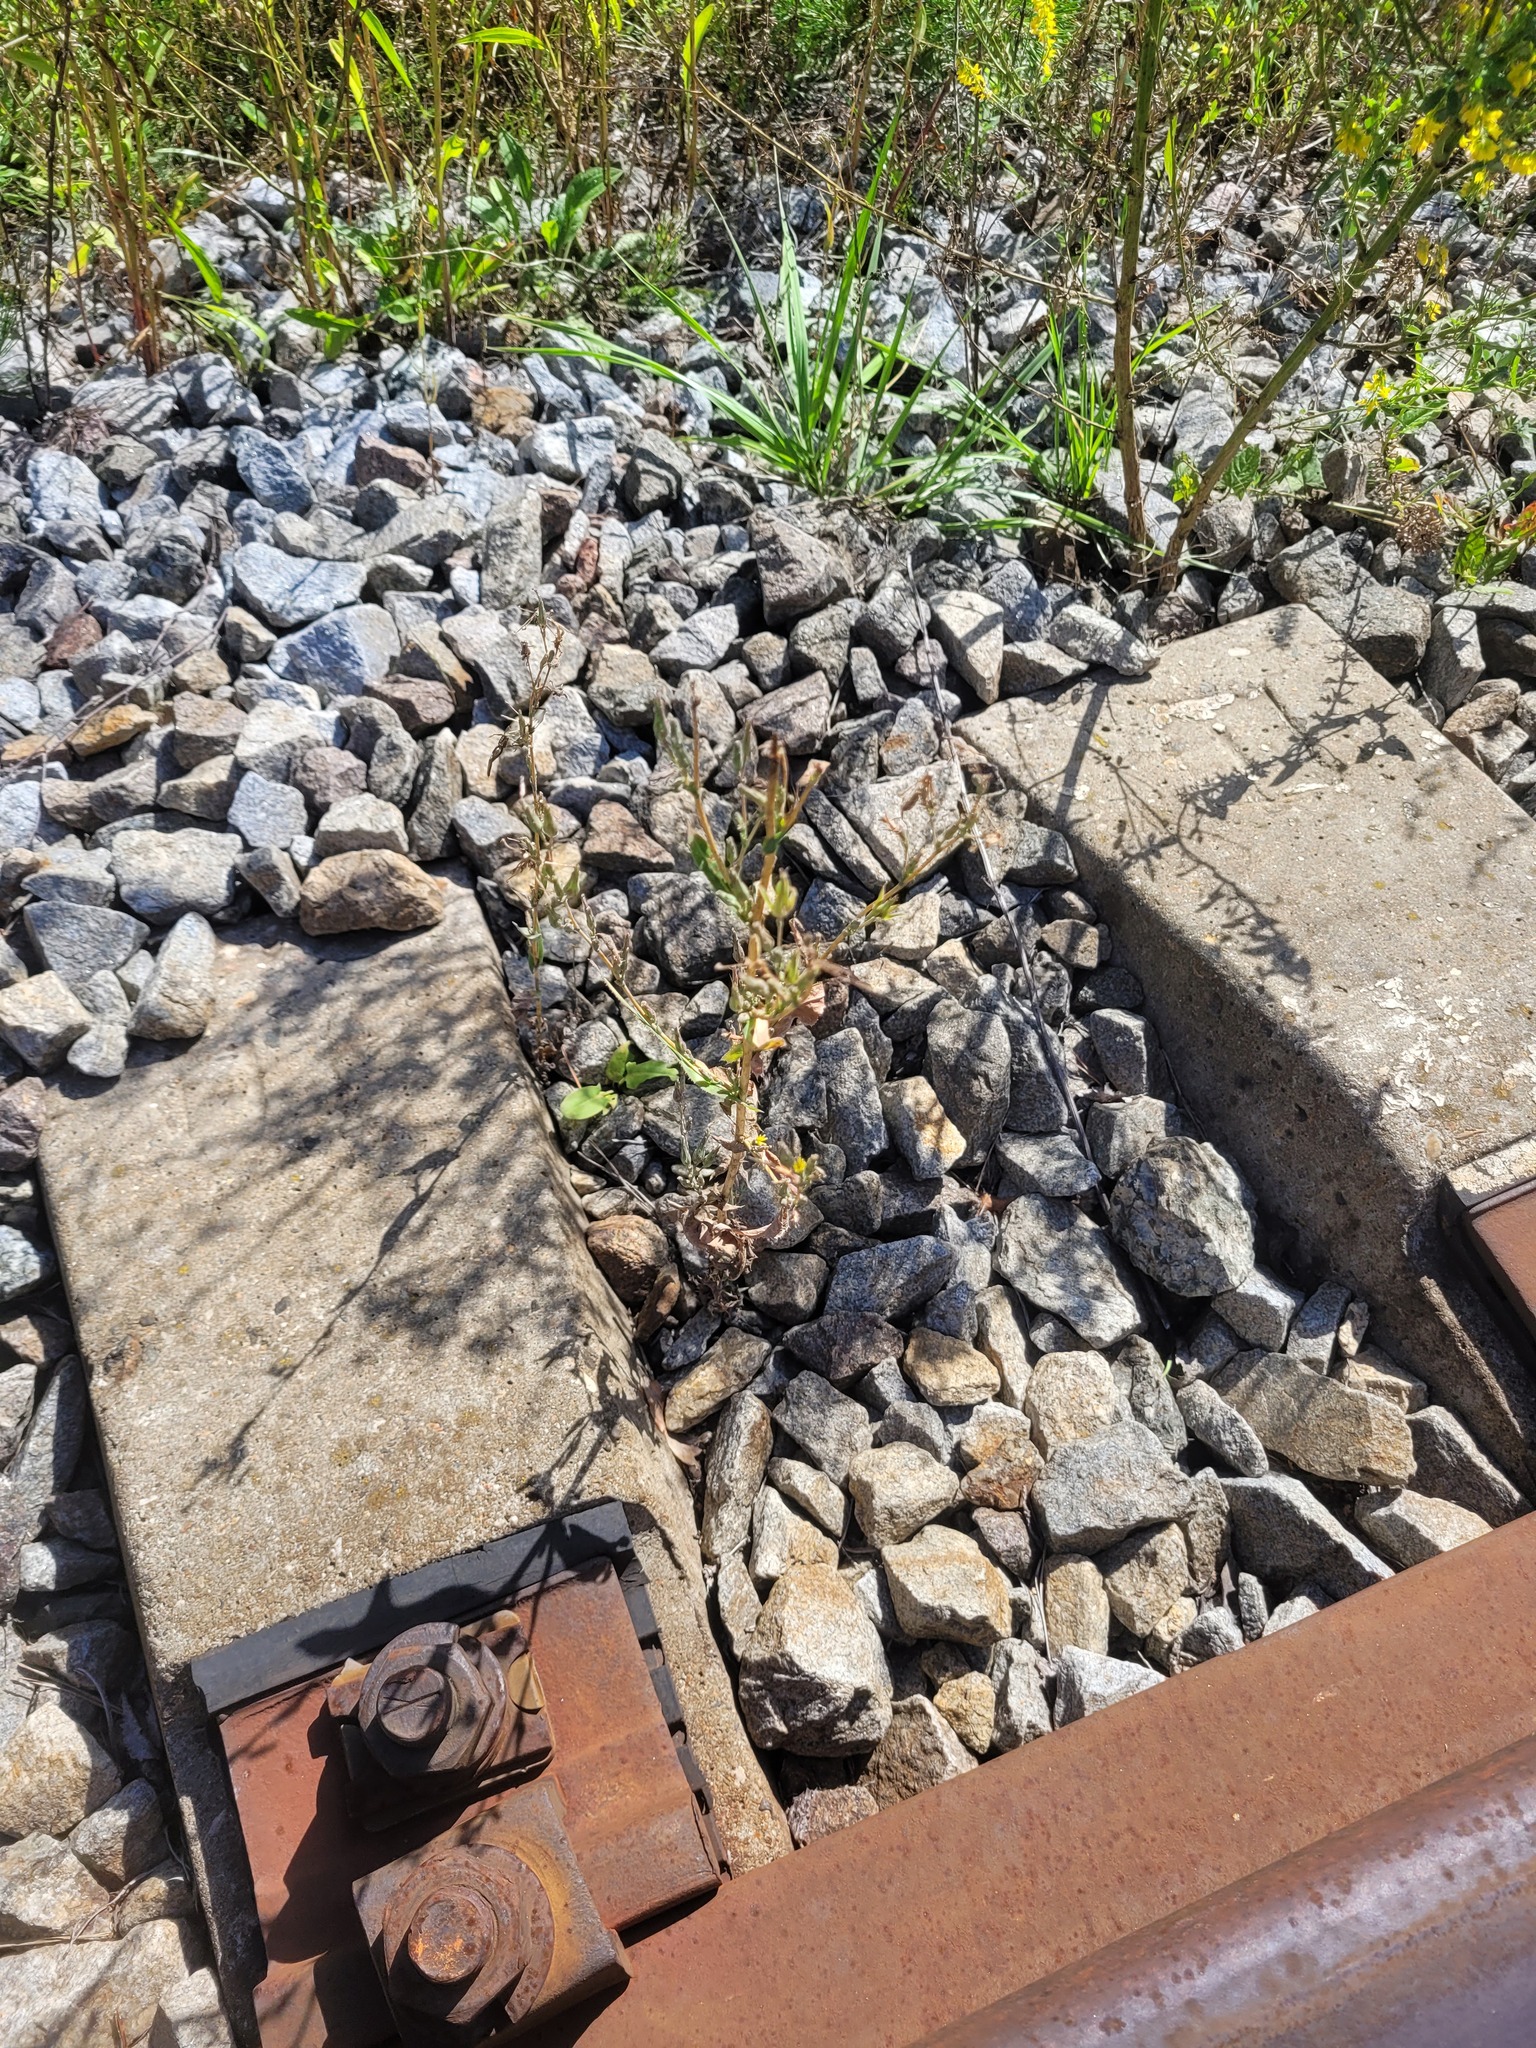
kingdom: Plantae
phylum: Tracheophyta
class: Magnoliopsida
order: Asterales
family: Asteraceae
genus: Lactuca
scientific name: Lactuca serriola
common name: Prickly lettuce
